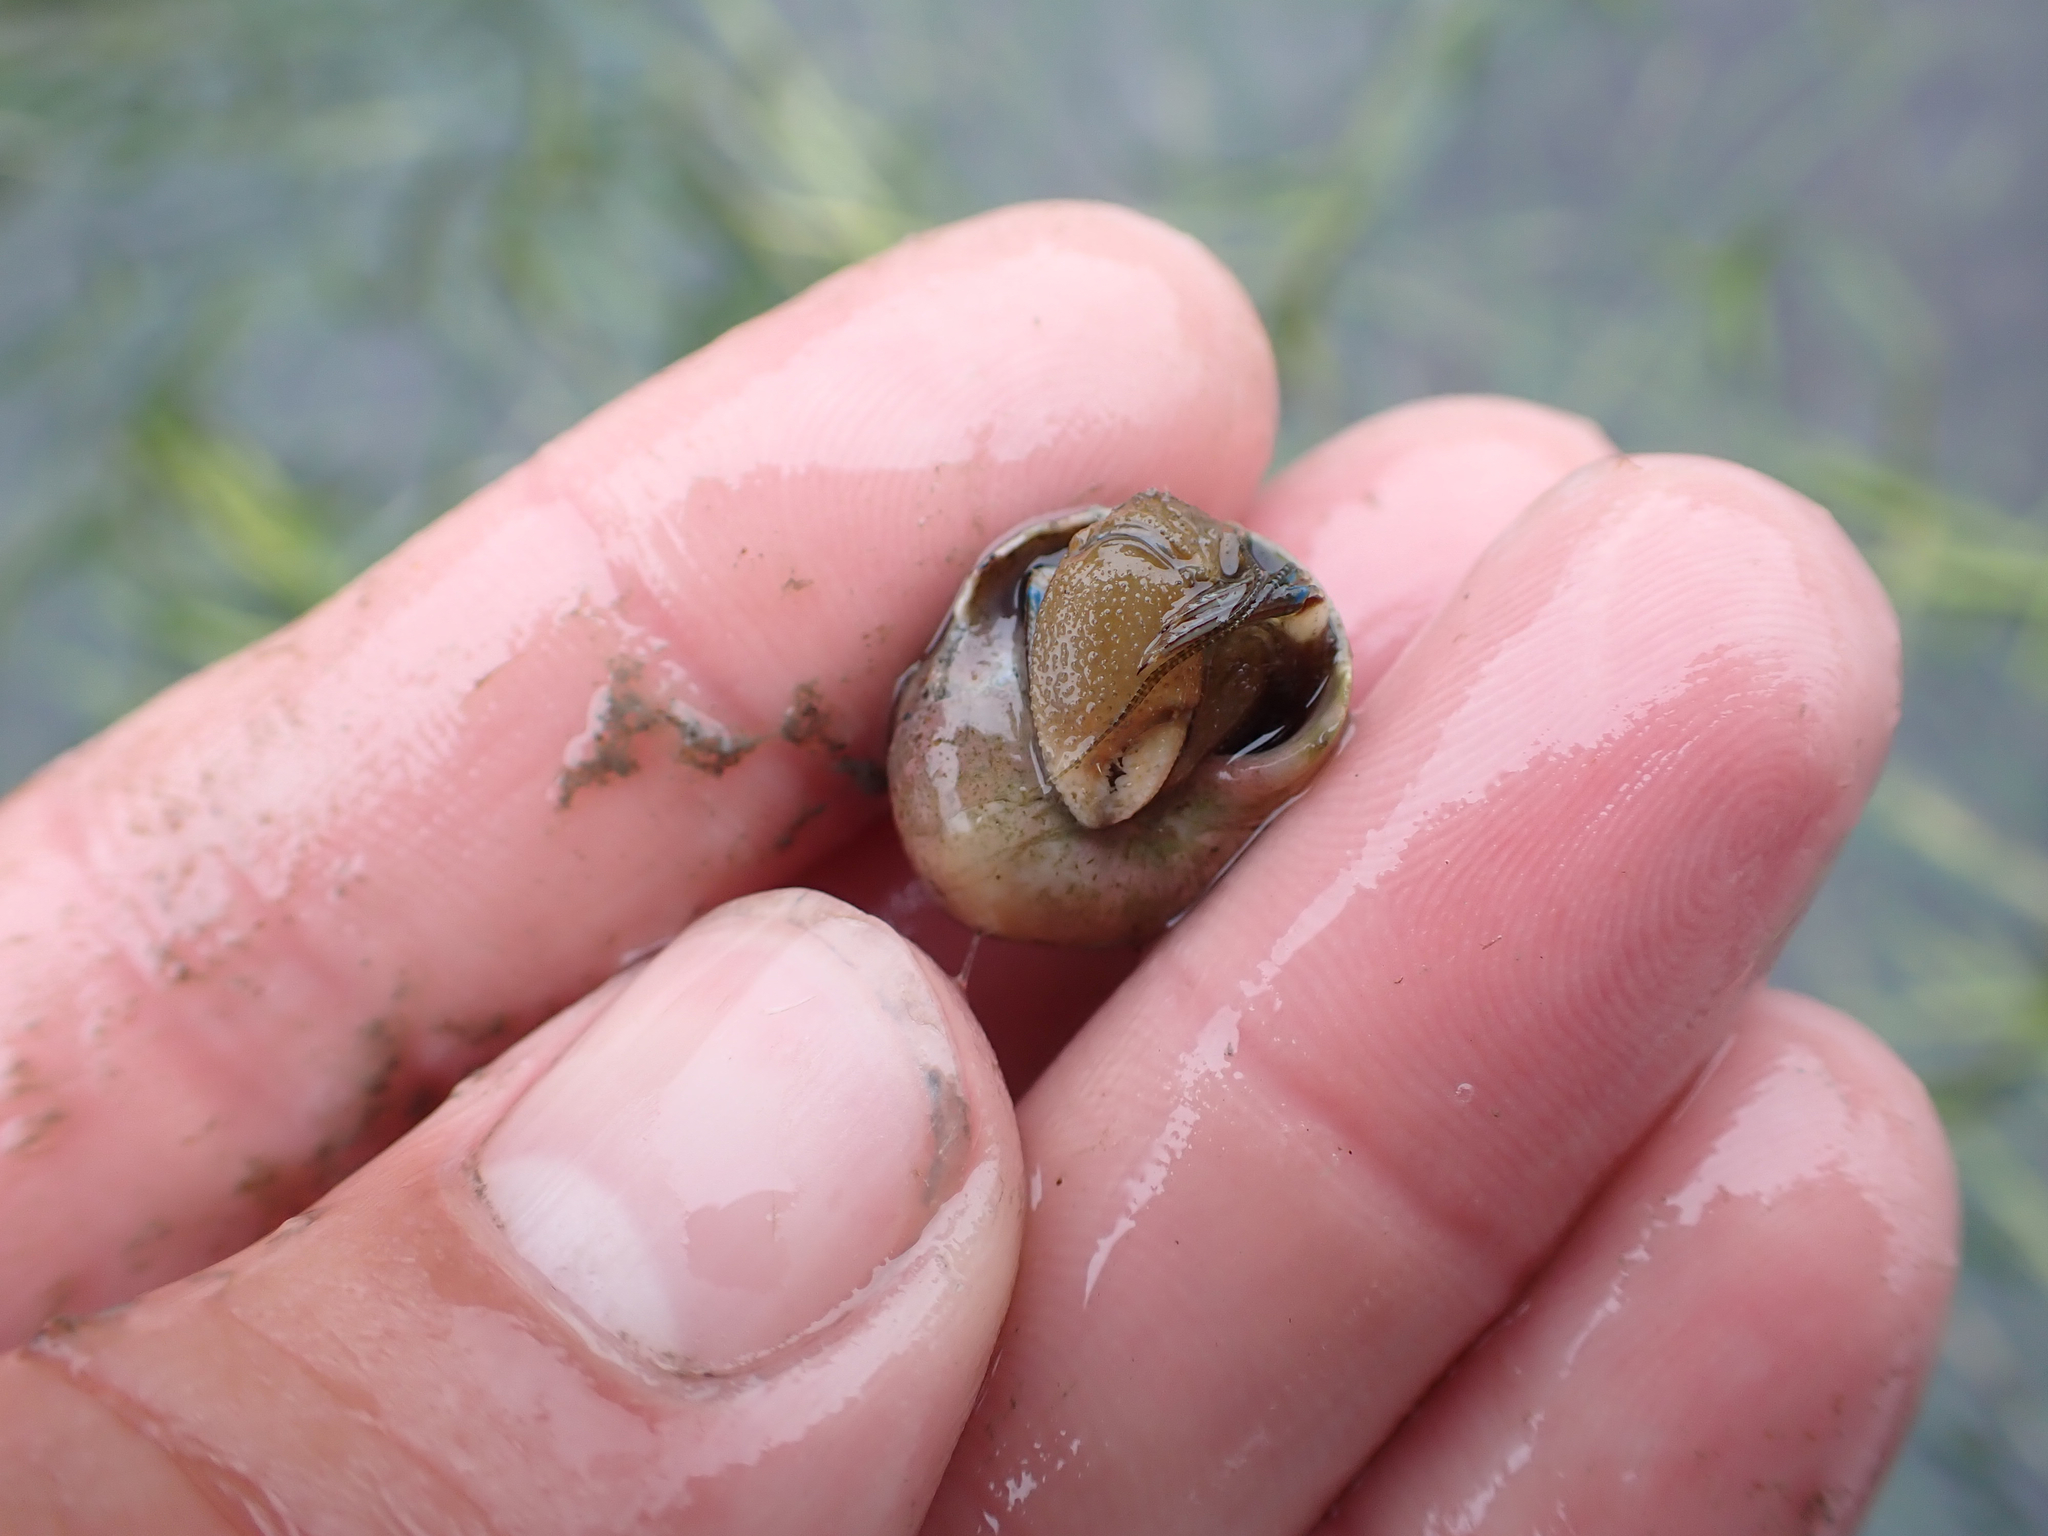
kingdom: Animalia
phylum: Arthropoda
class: Malacostraca
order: Decapoda
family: Paguridae
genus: Pagurus
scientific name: Pagurus hirsutiusculus
